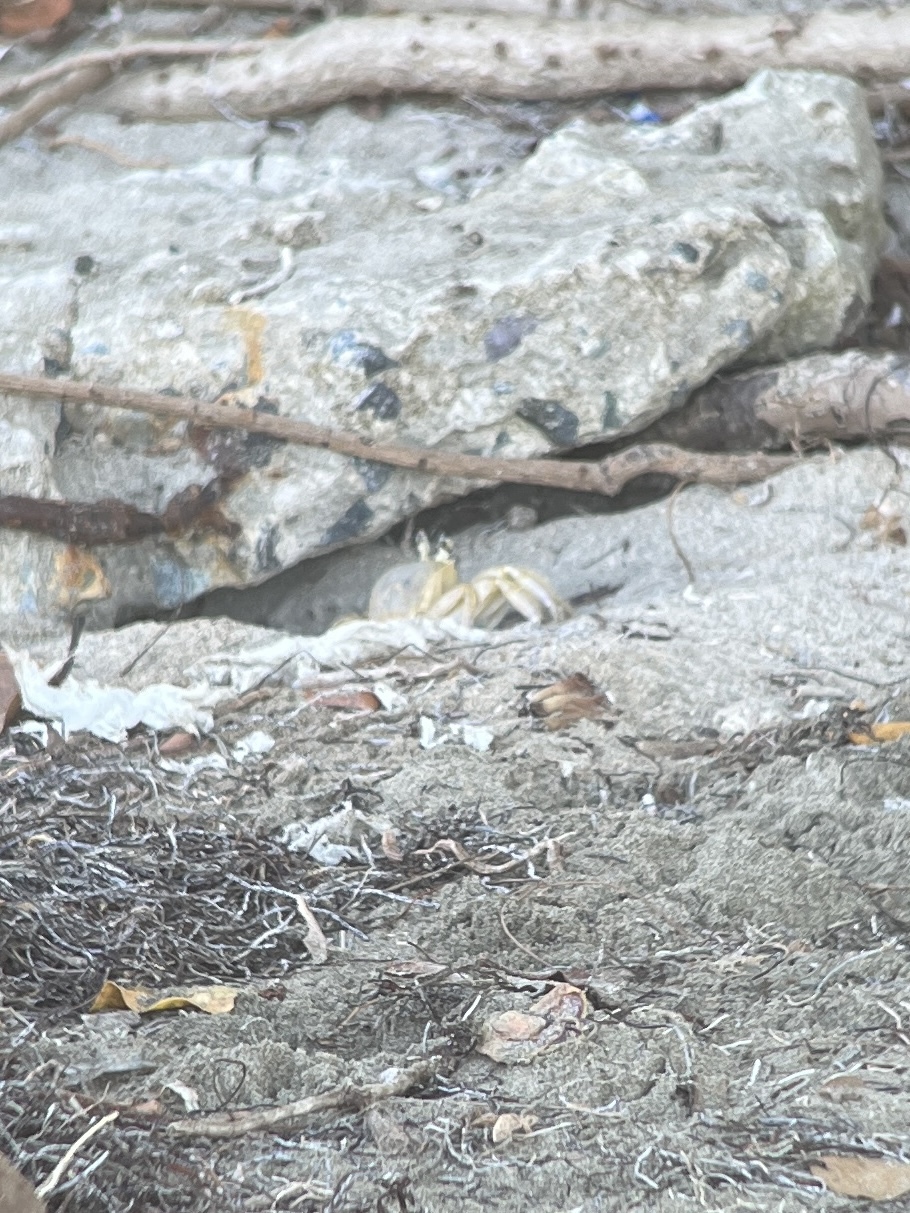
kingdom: Animalia
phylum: Arthropoda
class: Malacostraca
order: Decapoda
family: Ocypodidae
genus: Ocypode
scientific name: Ocypode quadrata
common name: Ghost crab
